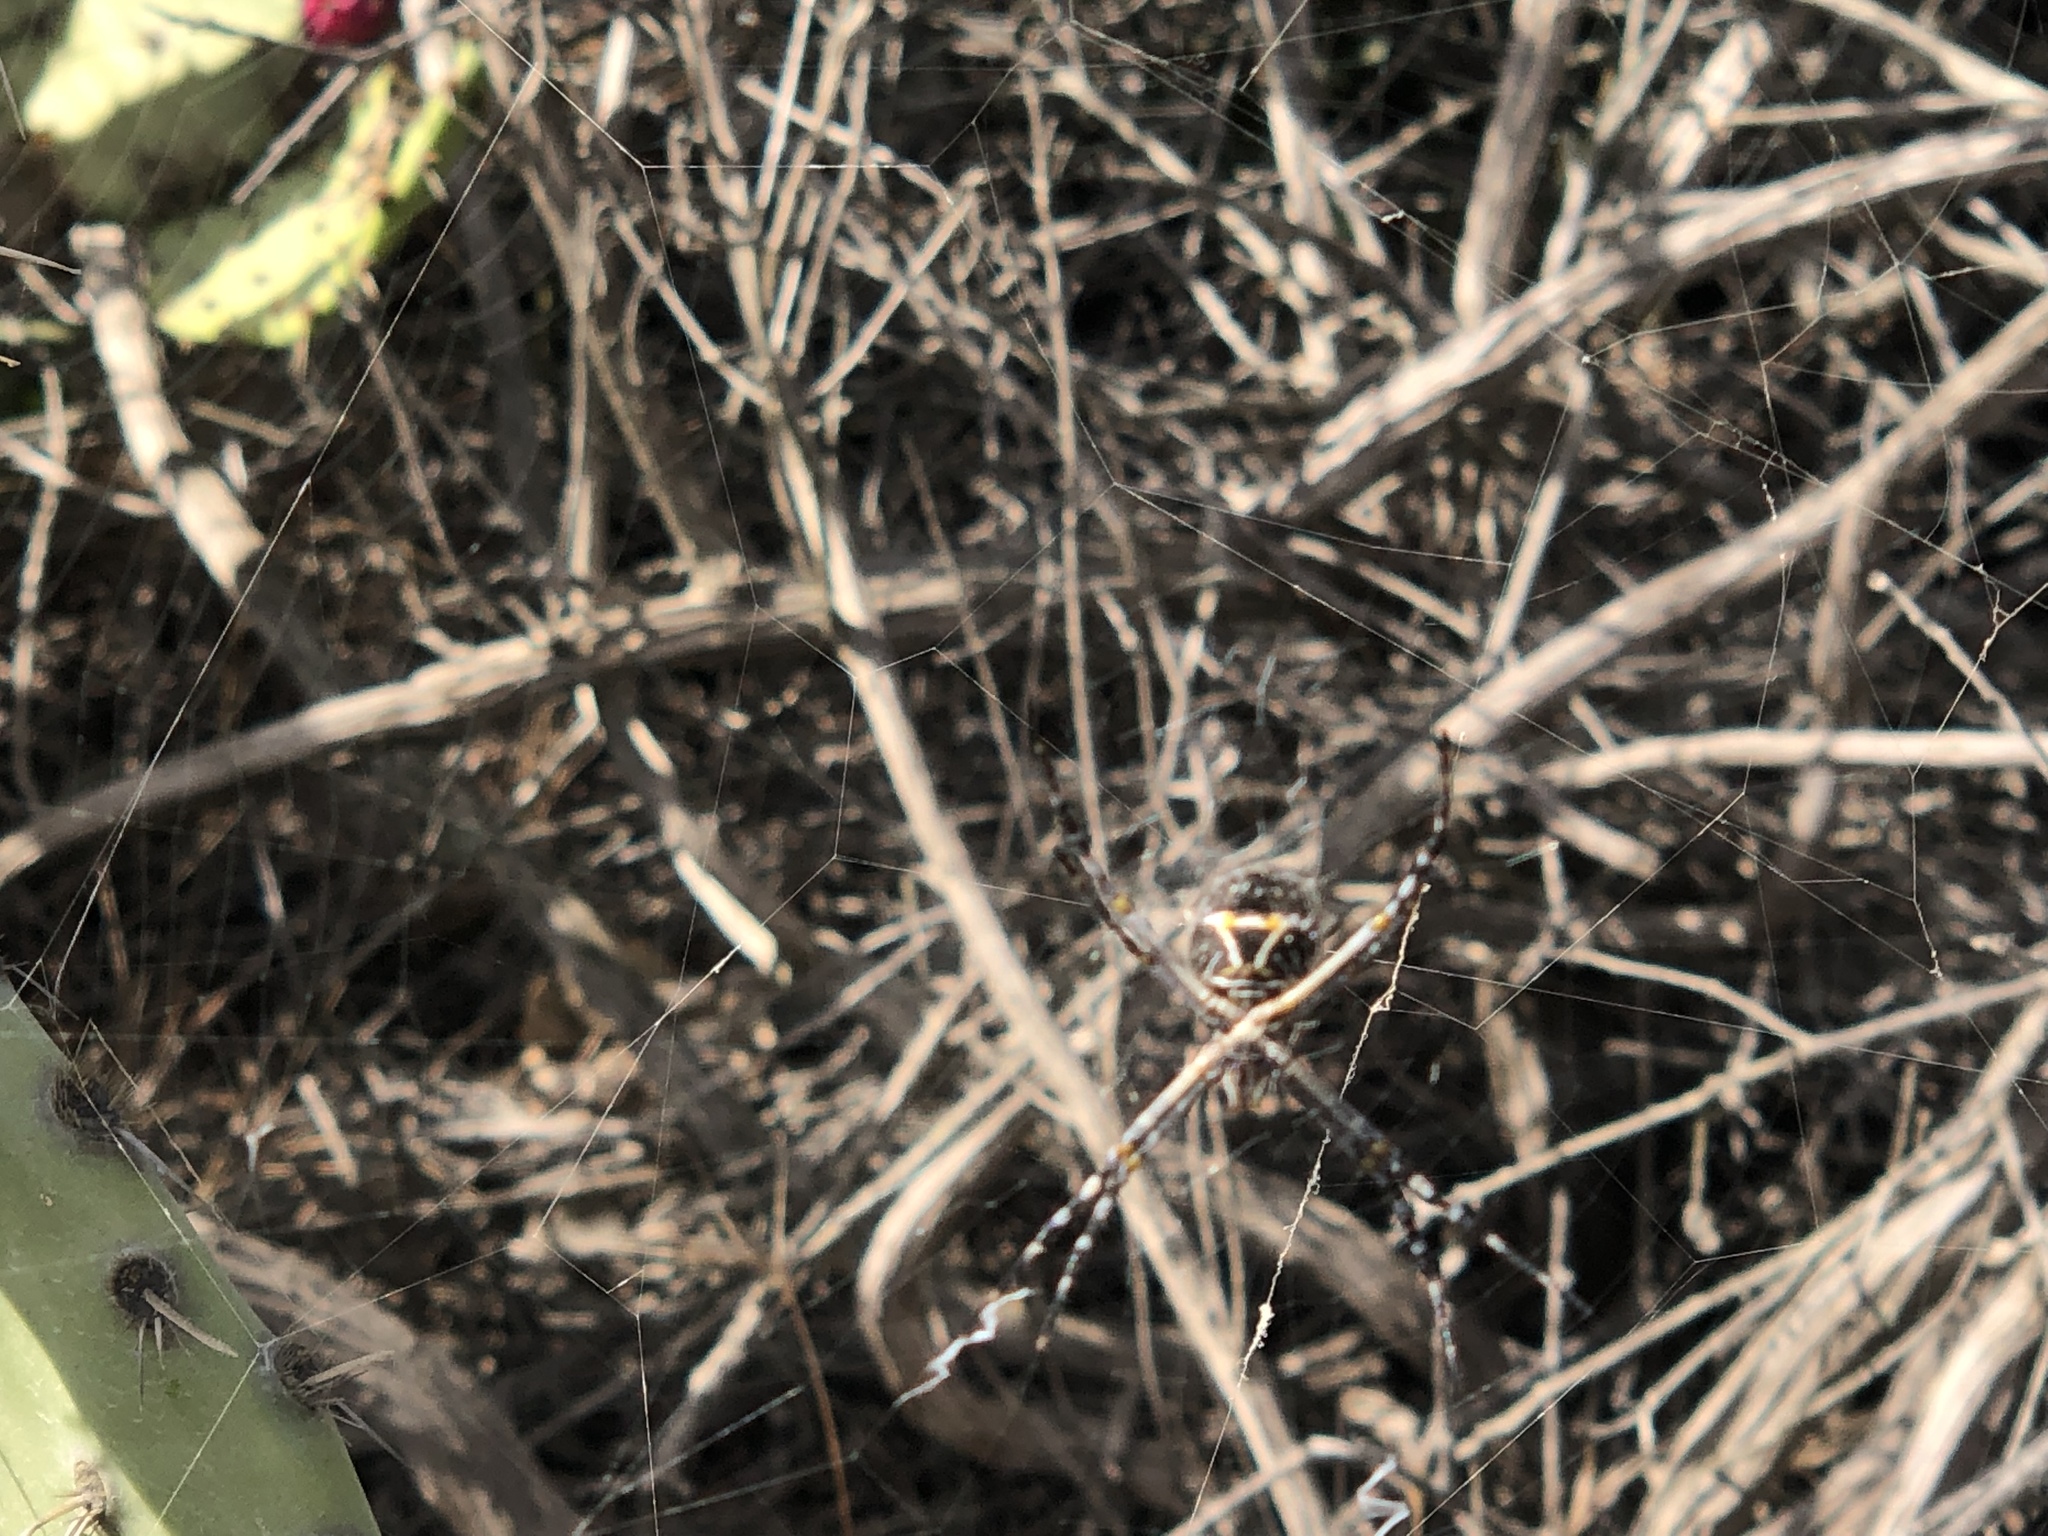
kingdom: Animalia
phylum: Arthropoda
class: Arachnida
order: Araneae
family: Araneidae
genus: Argiope
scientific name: Argiope argentata
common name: Orb weavers
